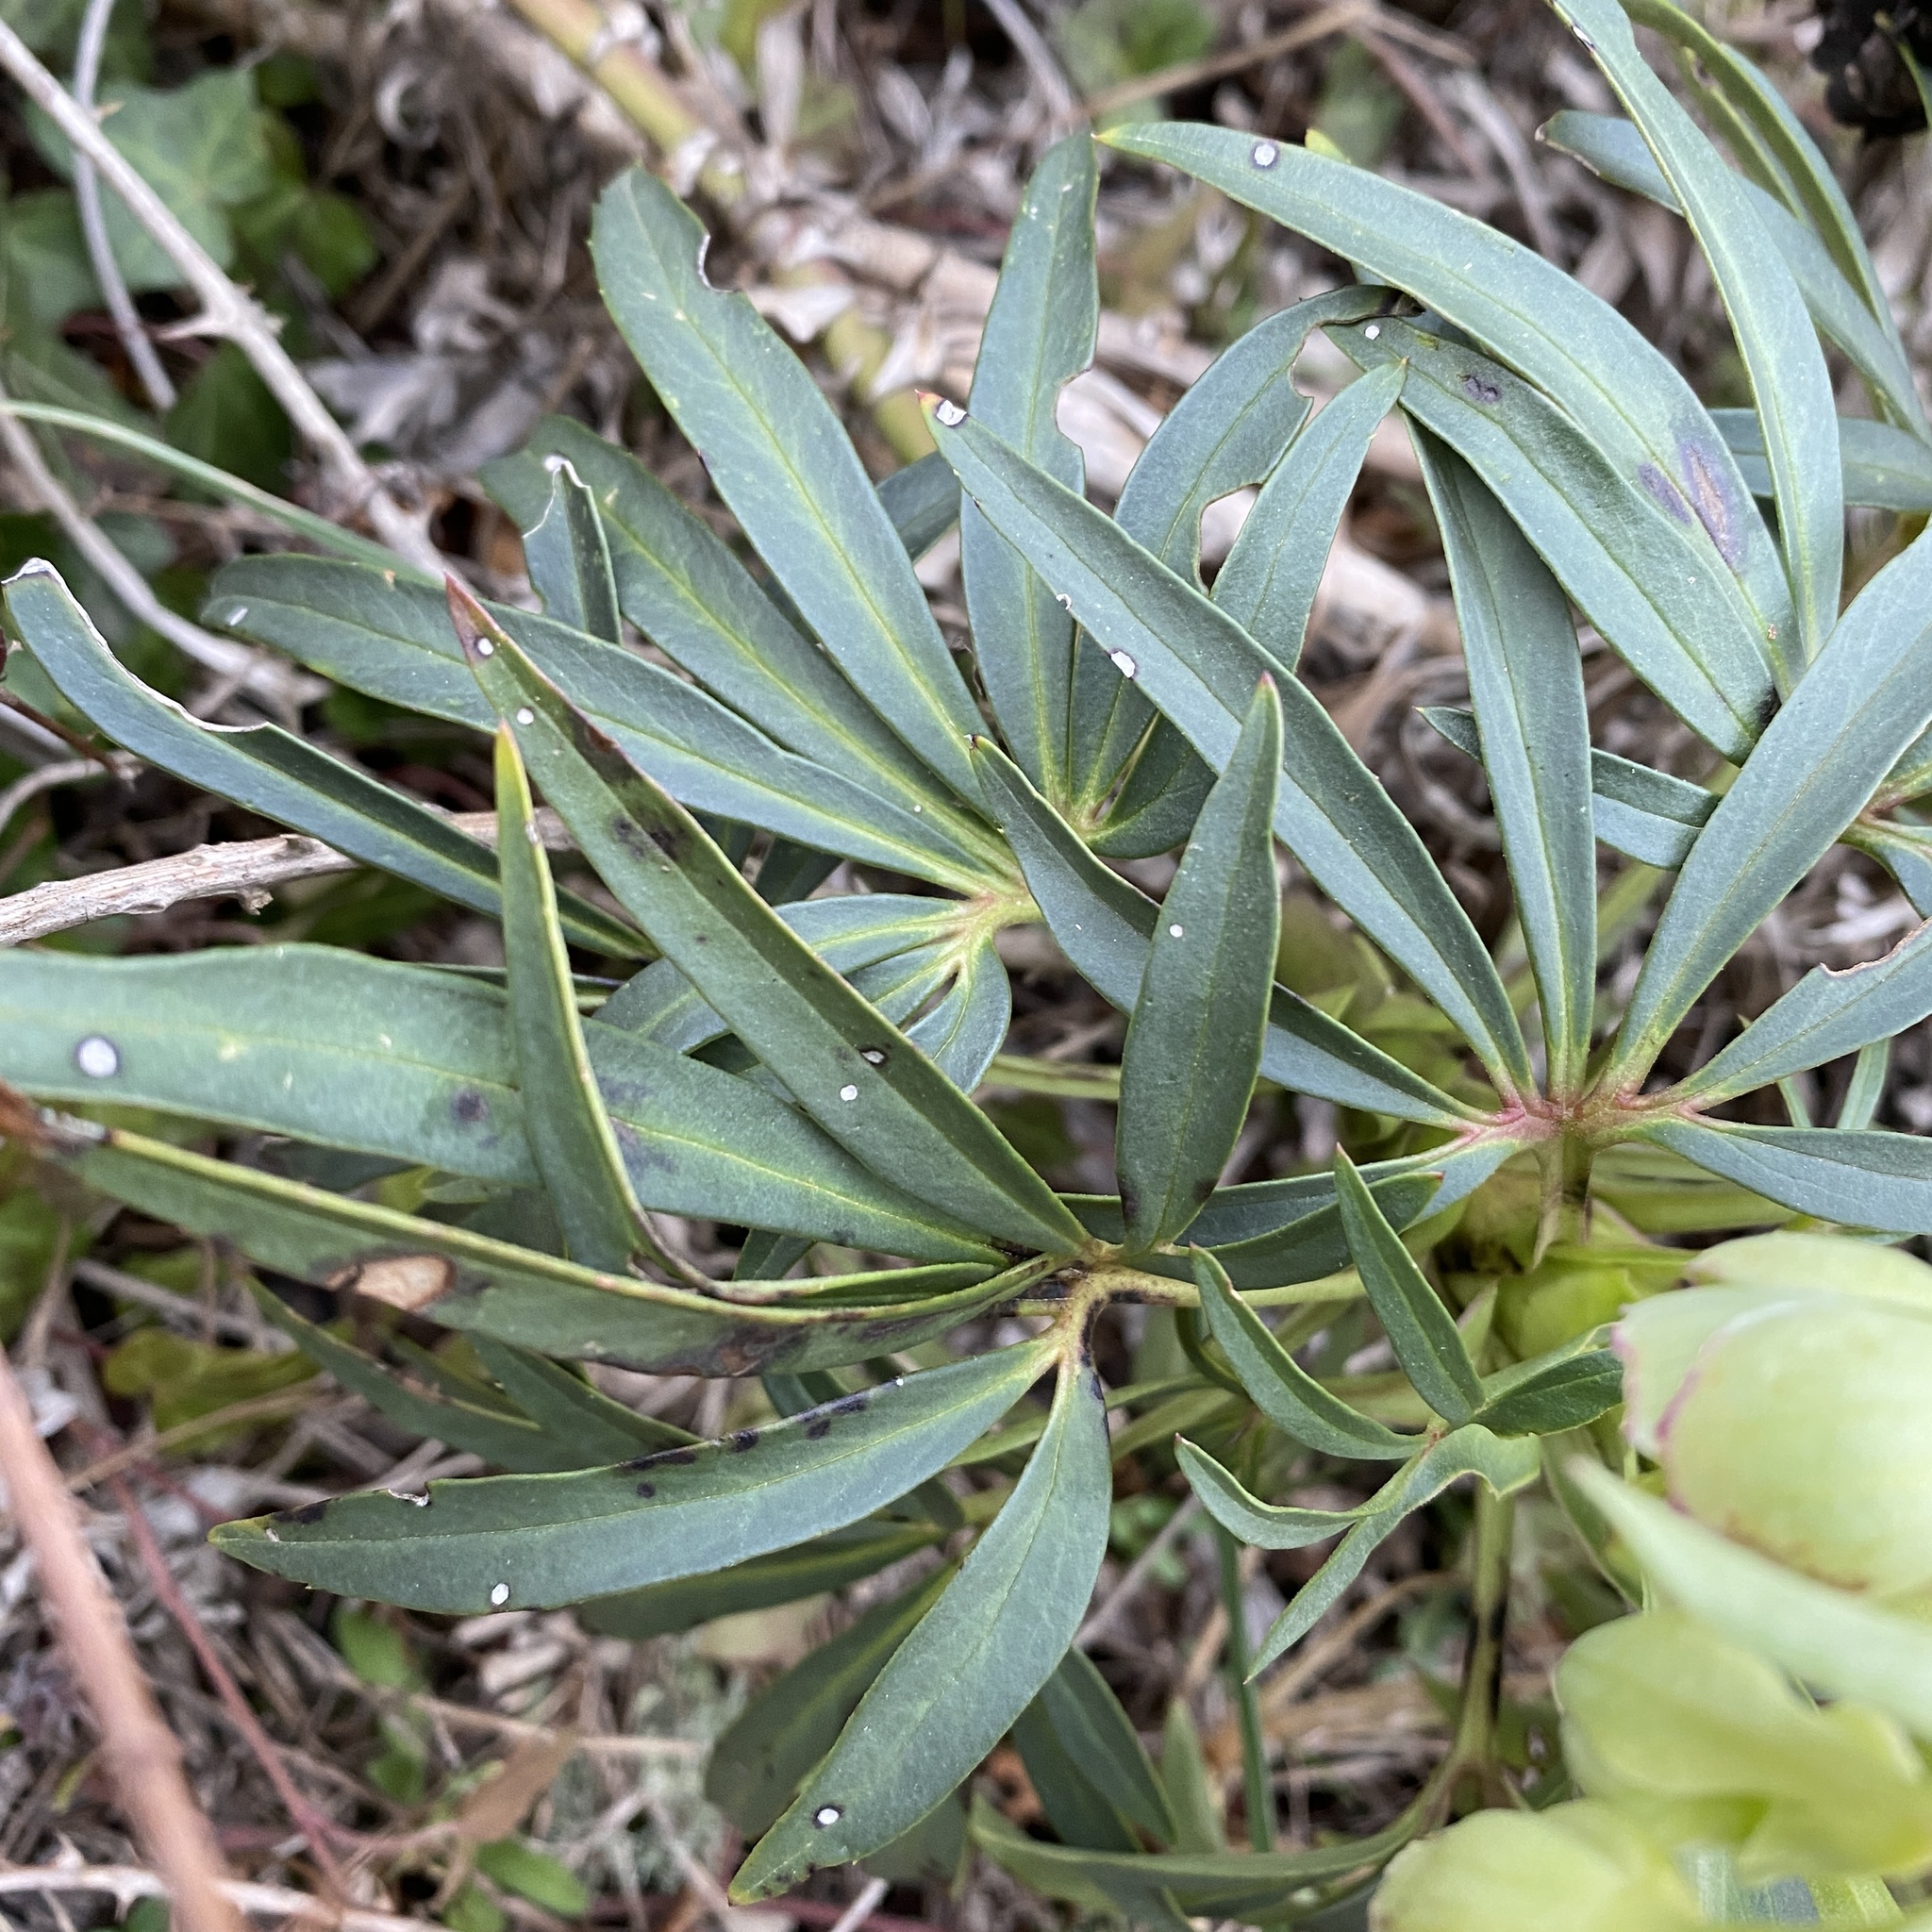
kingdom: Plantae
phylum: Tracheophyta
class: Magnoliopsida
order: Ranunculales
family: Ranunculaceae
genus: Helleborus
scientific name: Helleborus foetidus
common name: Stinking hellebore
